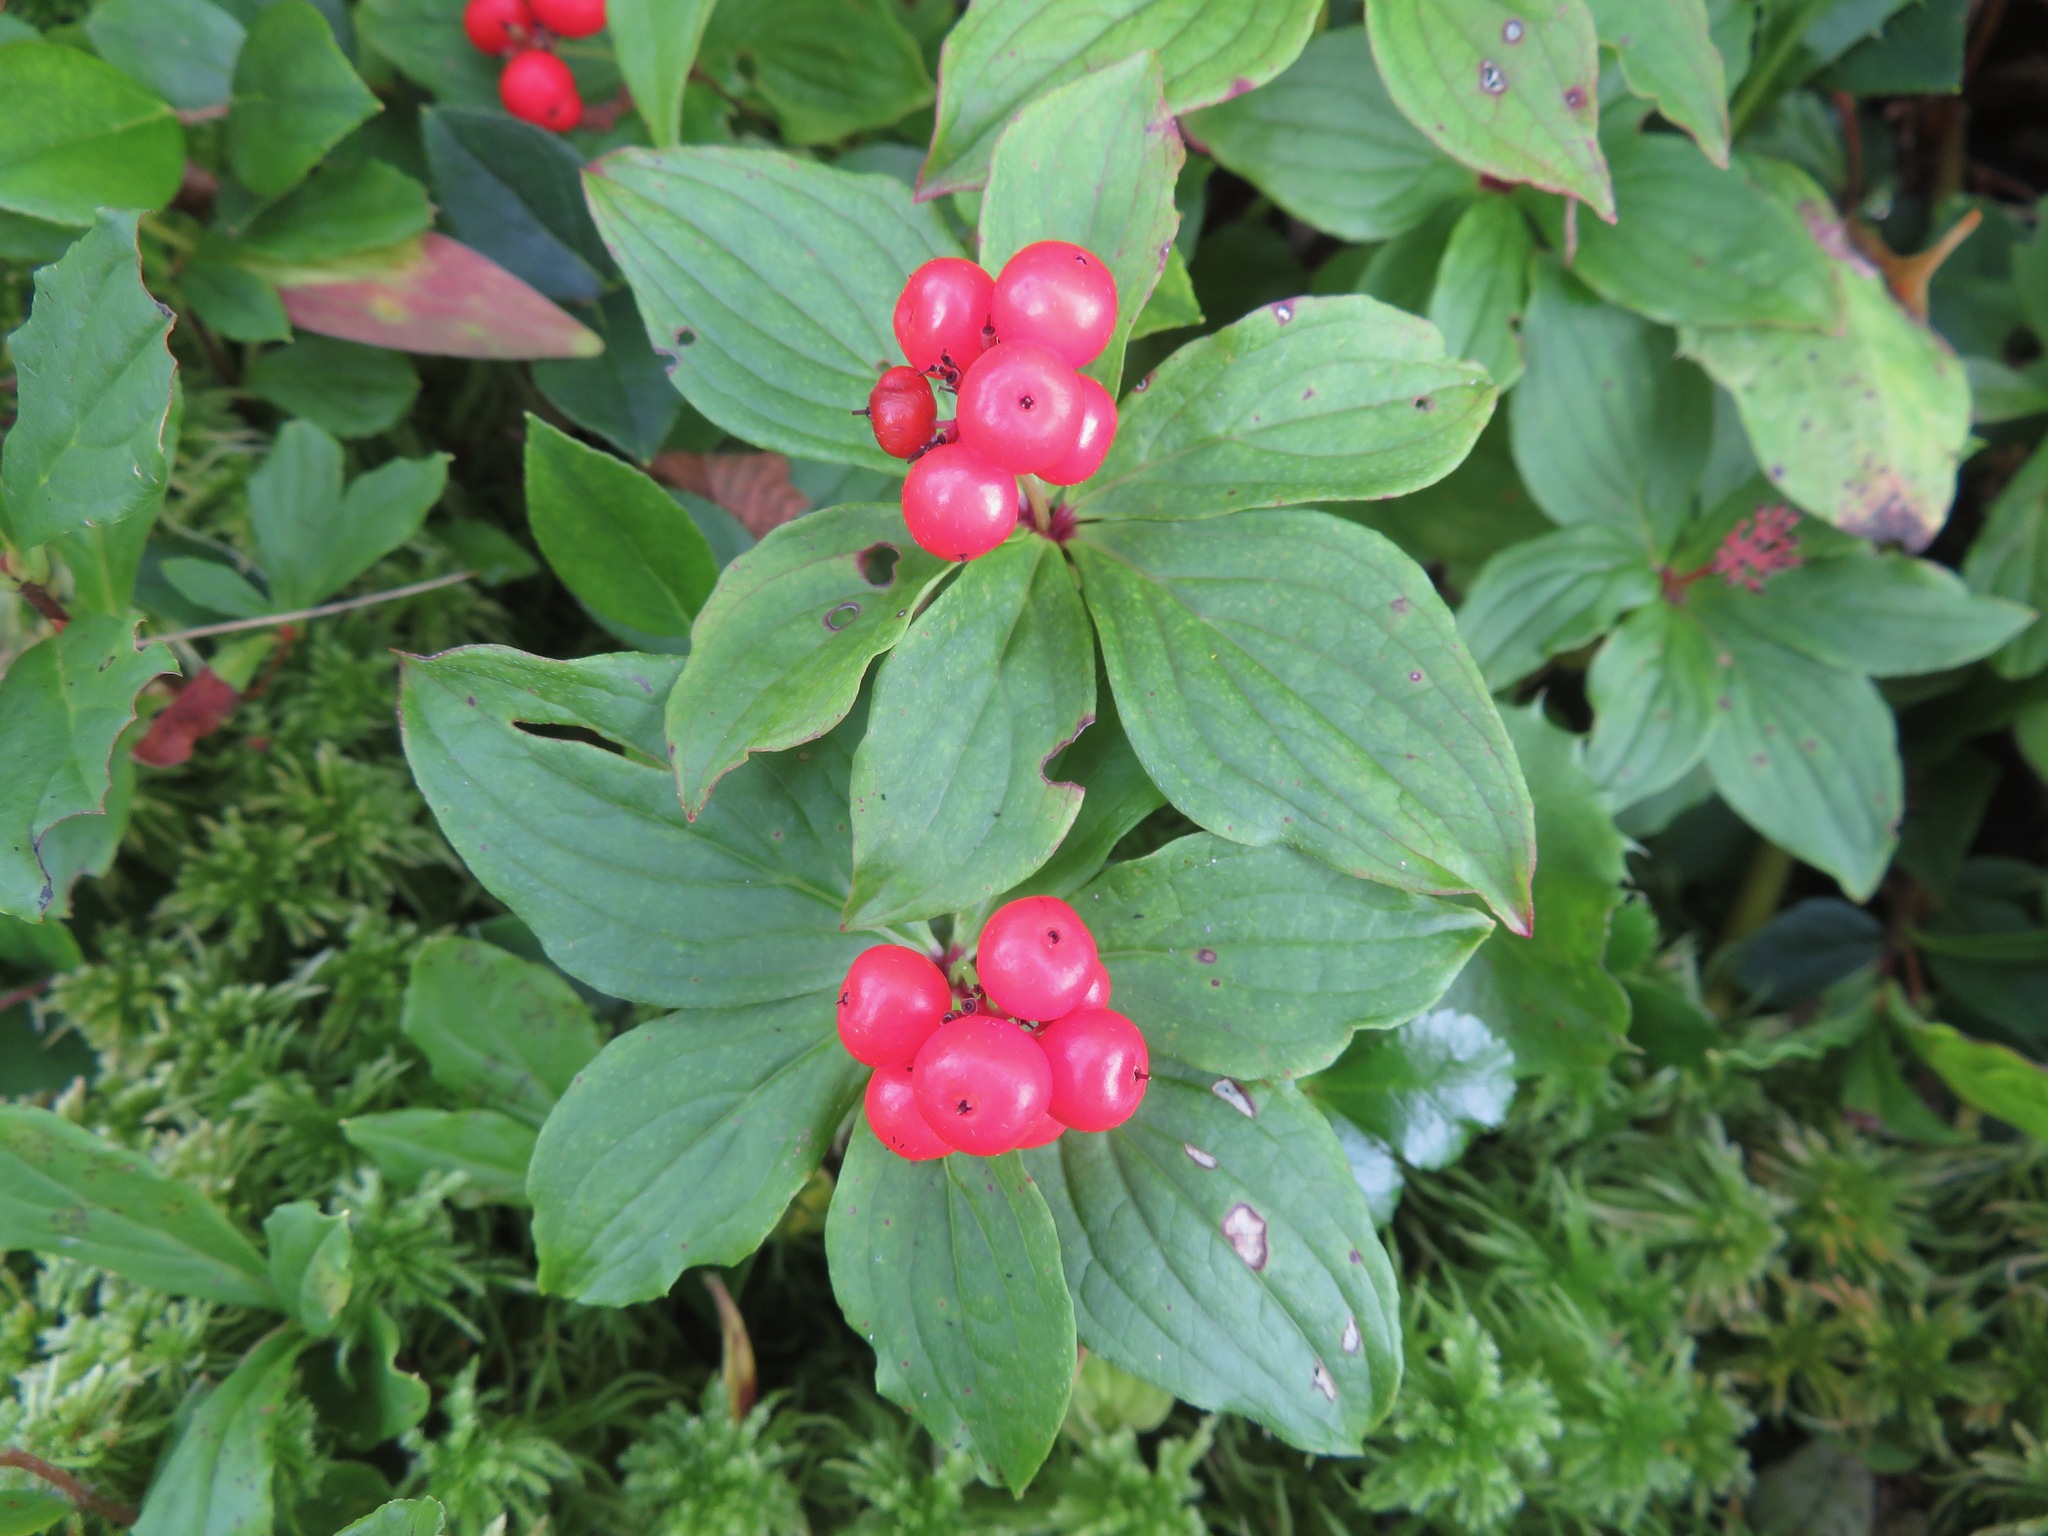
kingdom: Plantae
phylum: Tracheophyta
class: Magnoliopsida
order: Cornales
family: Cornaceae
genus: Cornus
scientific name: Cornus canadensis
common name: Creeping dogwood
